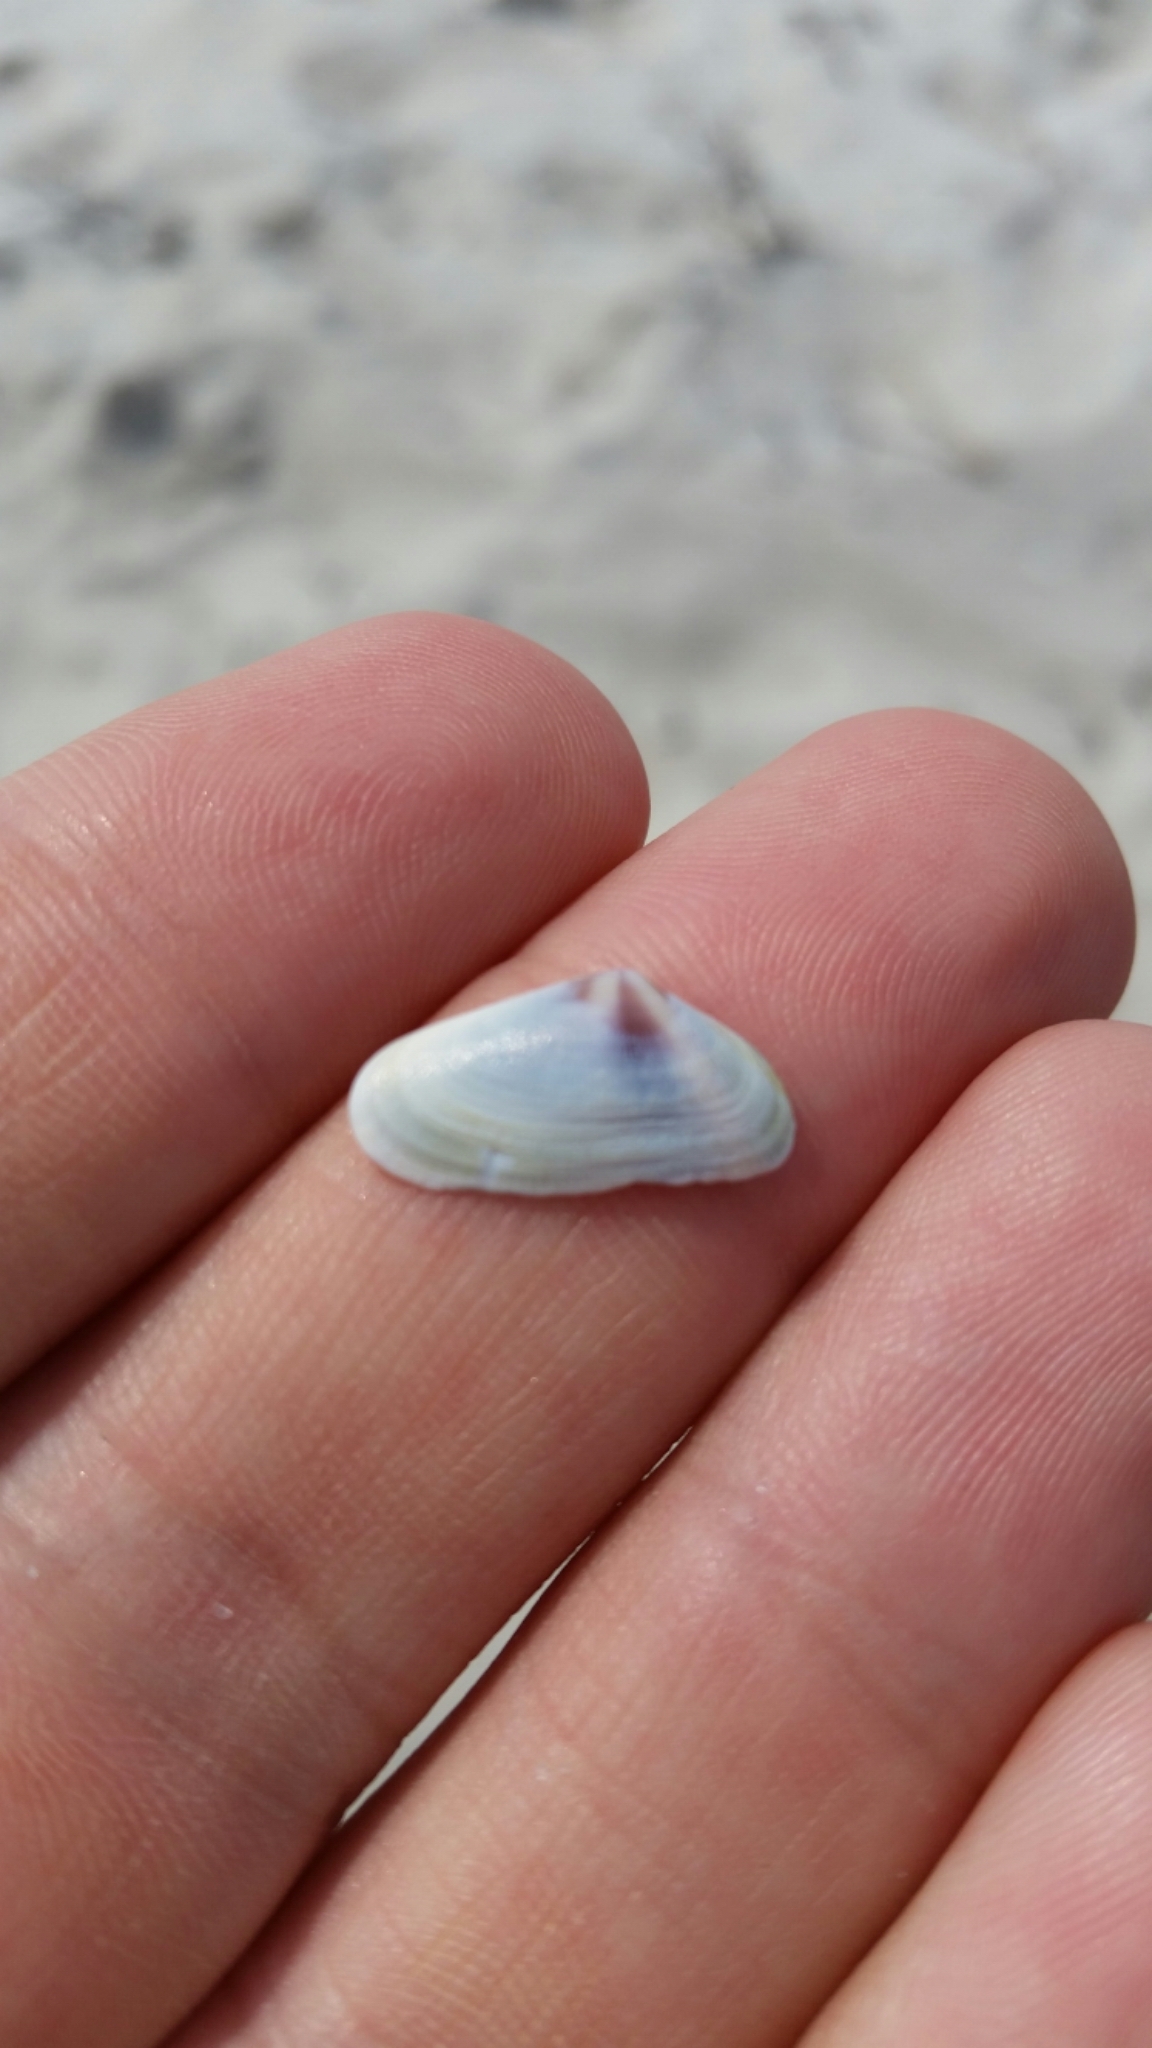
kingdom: Animalia
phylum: Mollusca
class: Bivalvia
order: Cardiida
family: Donacidae
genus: Donax
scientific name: Donax fossor
